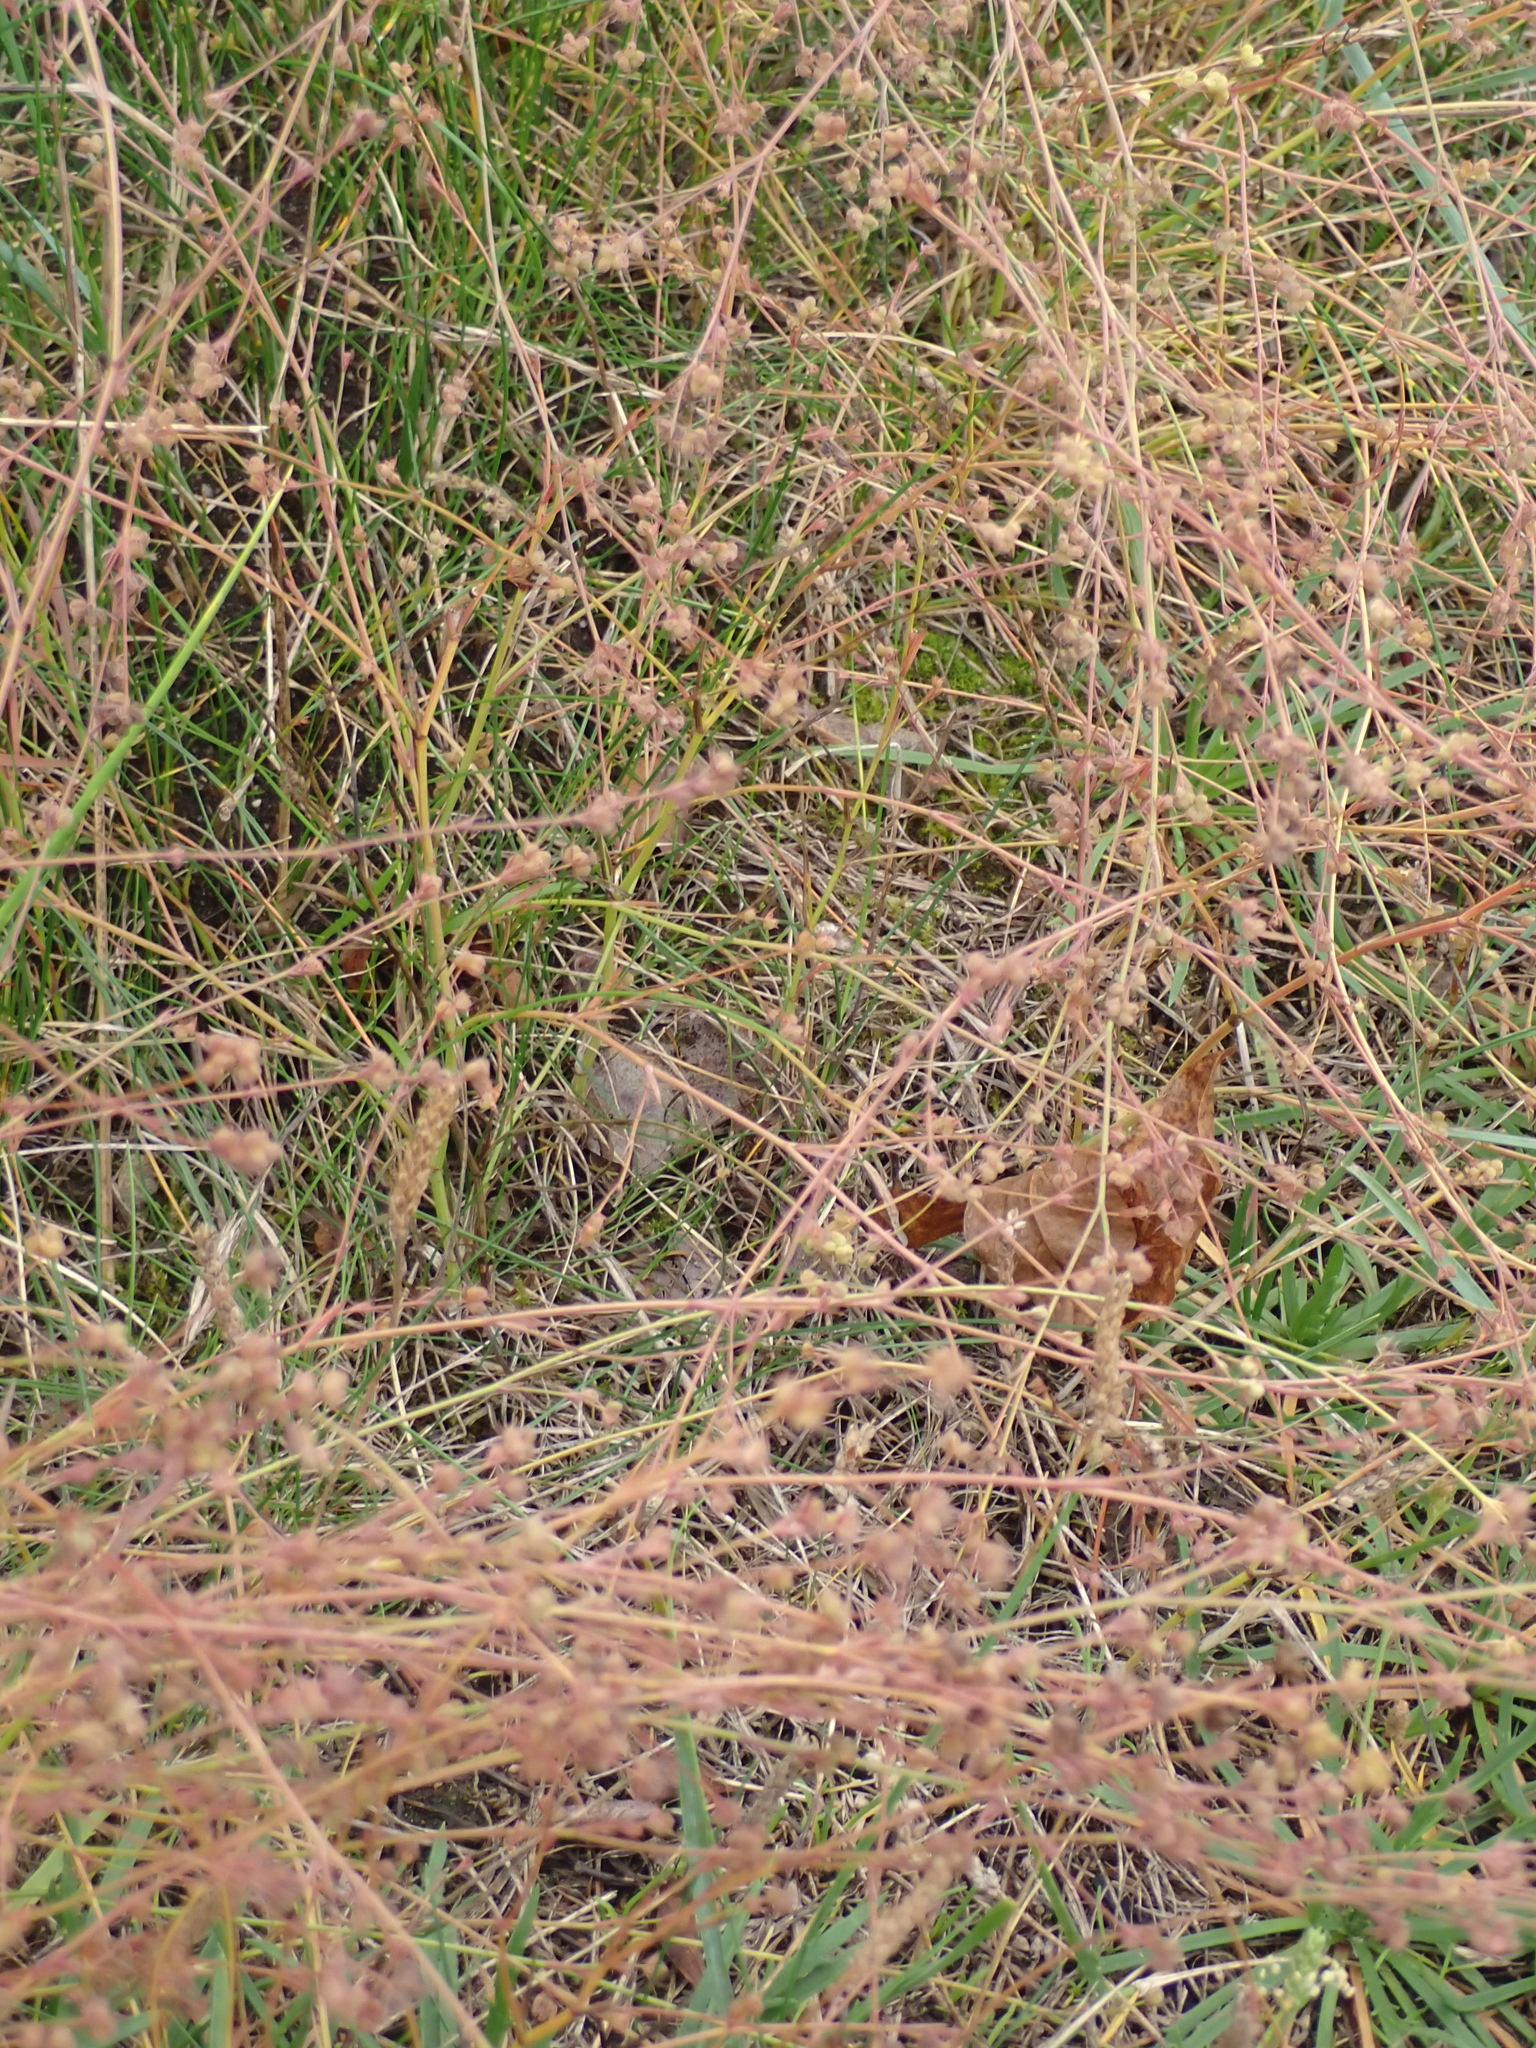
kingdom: Plantae
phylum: Tracheophyta
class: Magnoliopsida
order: Apiales
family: Apiaceae
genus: Bupleurum
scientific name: Bupleurum tenuissimum
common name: Slender hare's-ear
